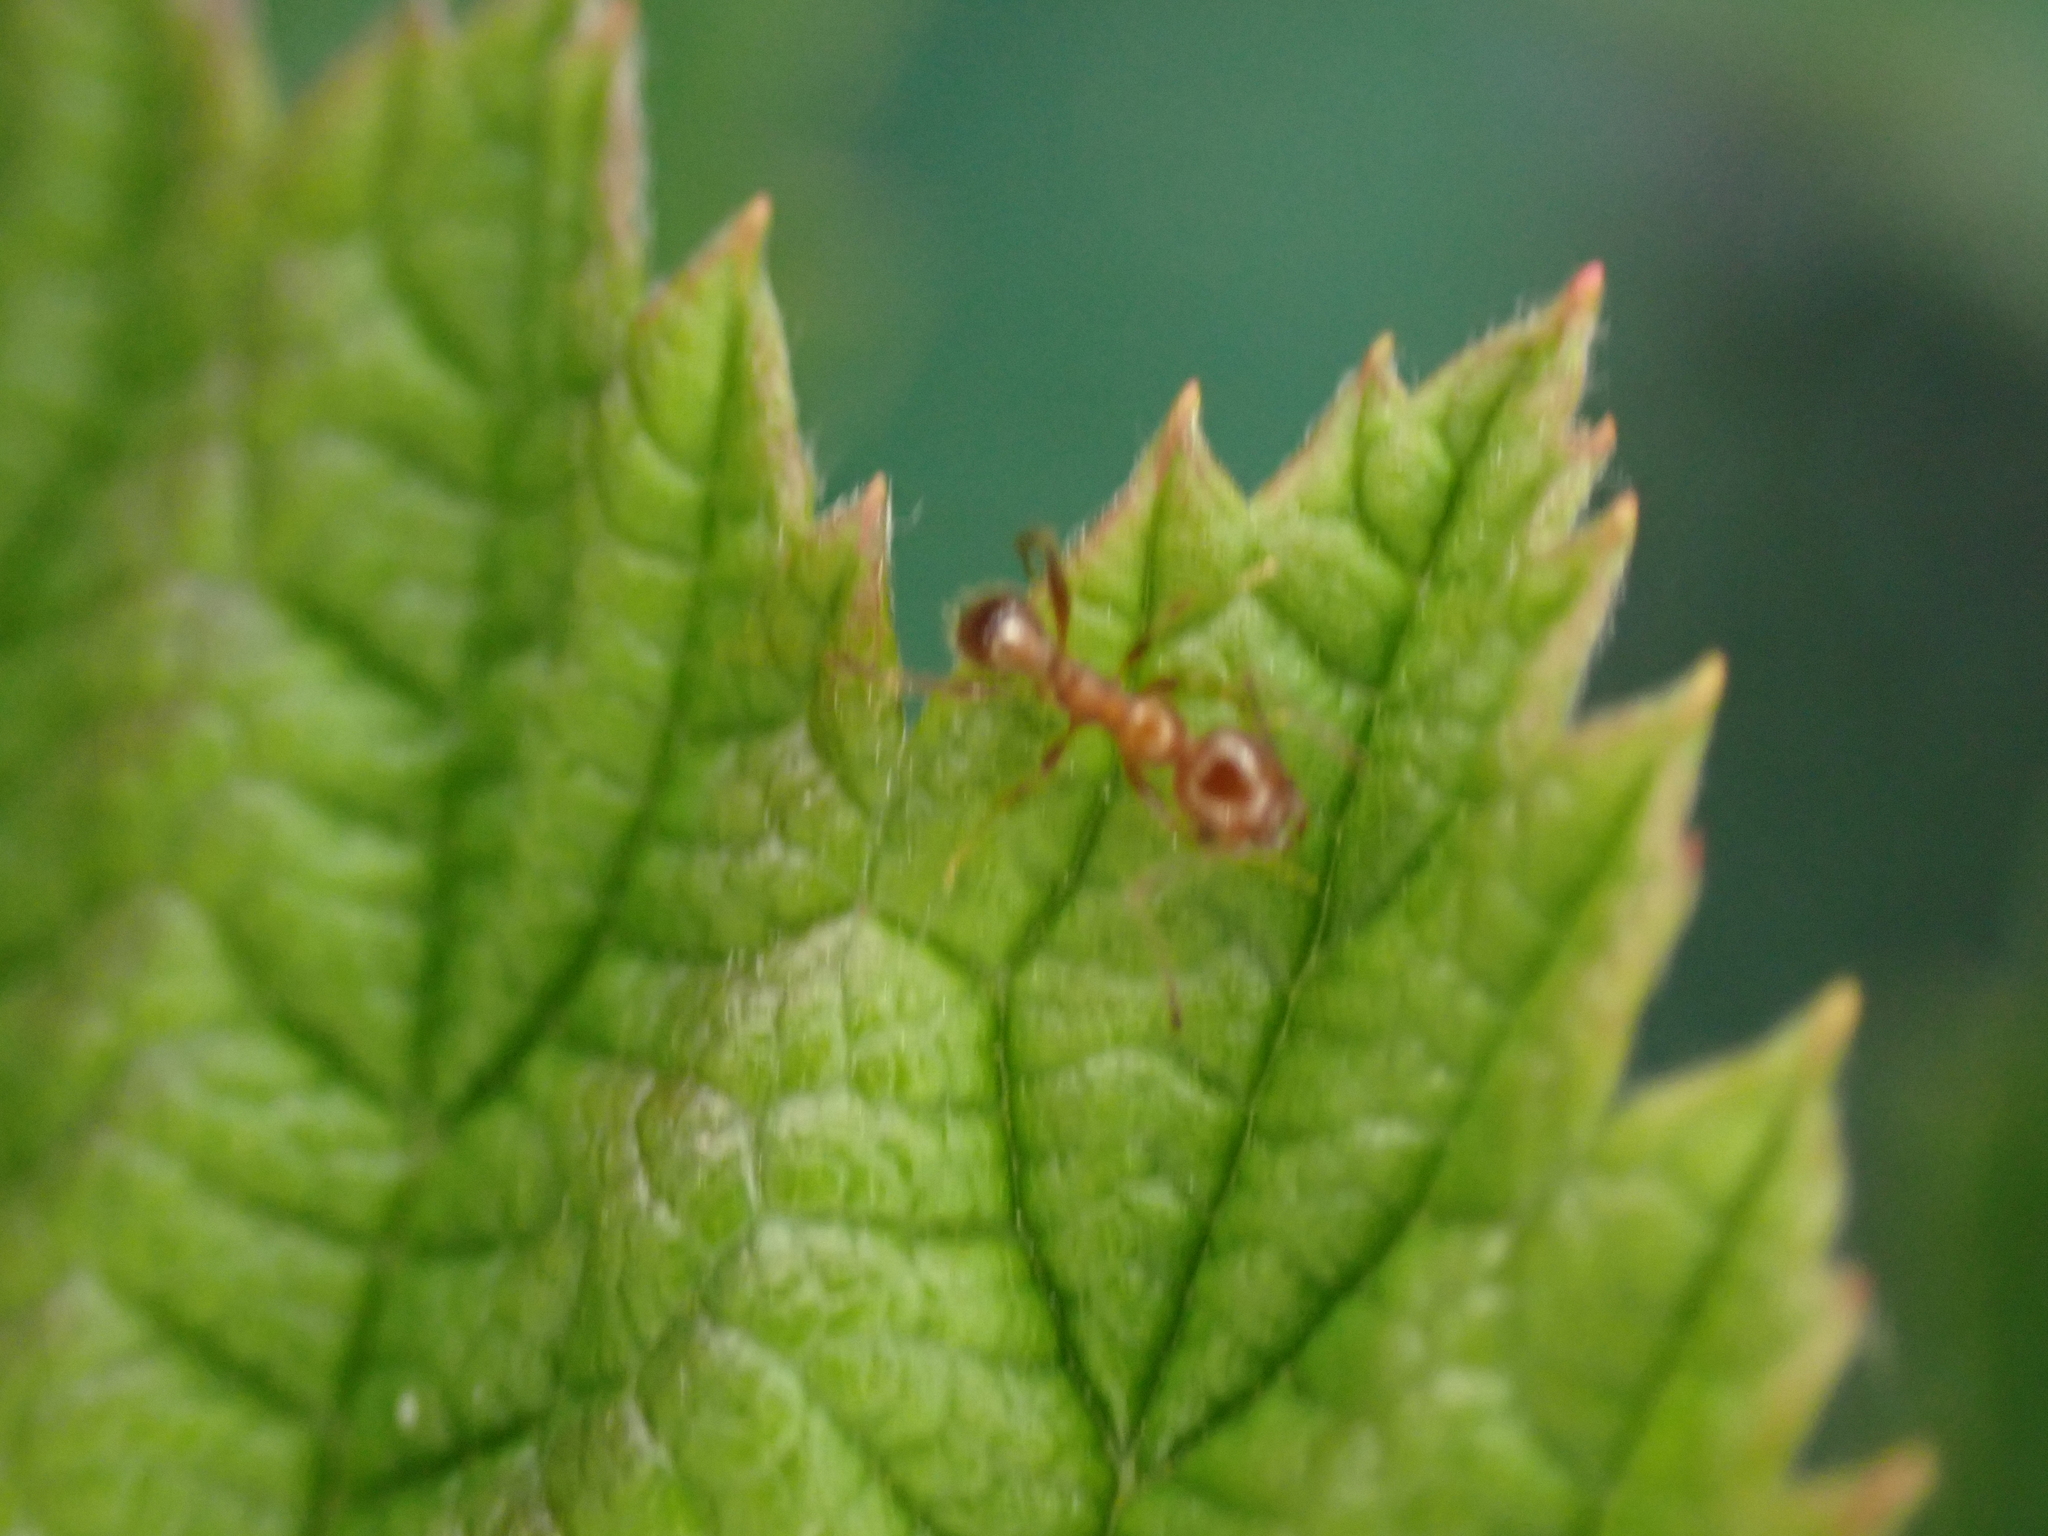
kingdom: Animalia
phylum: Arthropoda
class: Insecta
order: Hymenoptera
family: Formicidae
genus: Pheidole
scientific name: Pheidole dentata
